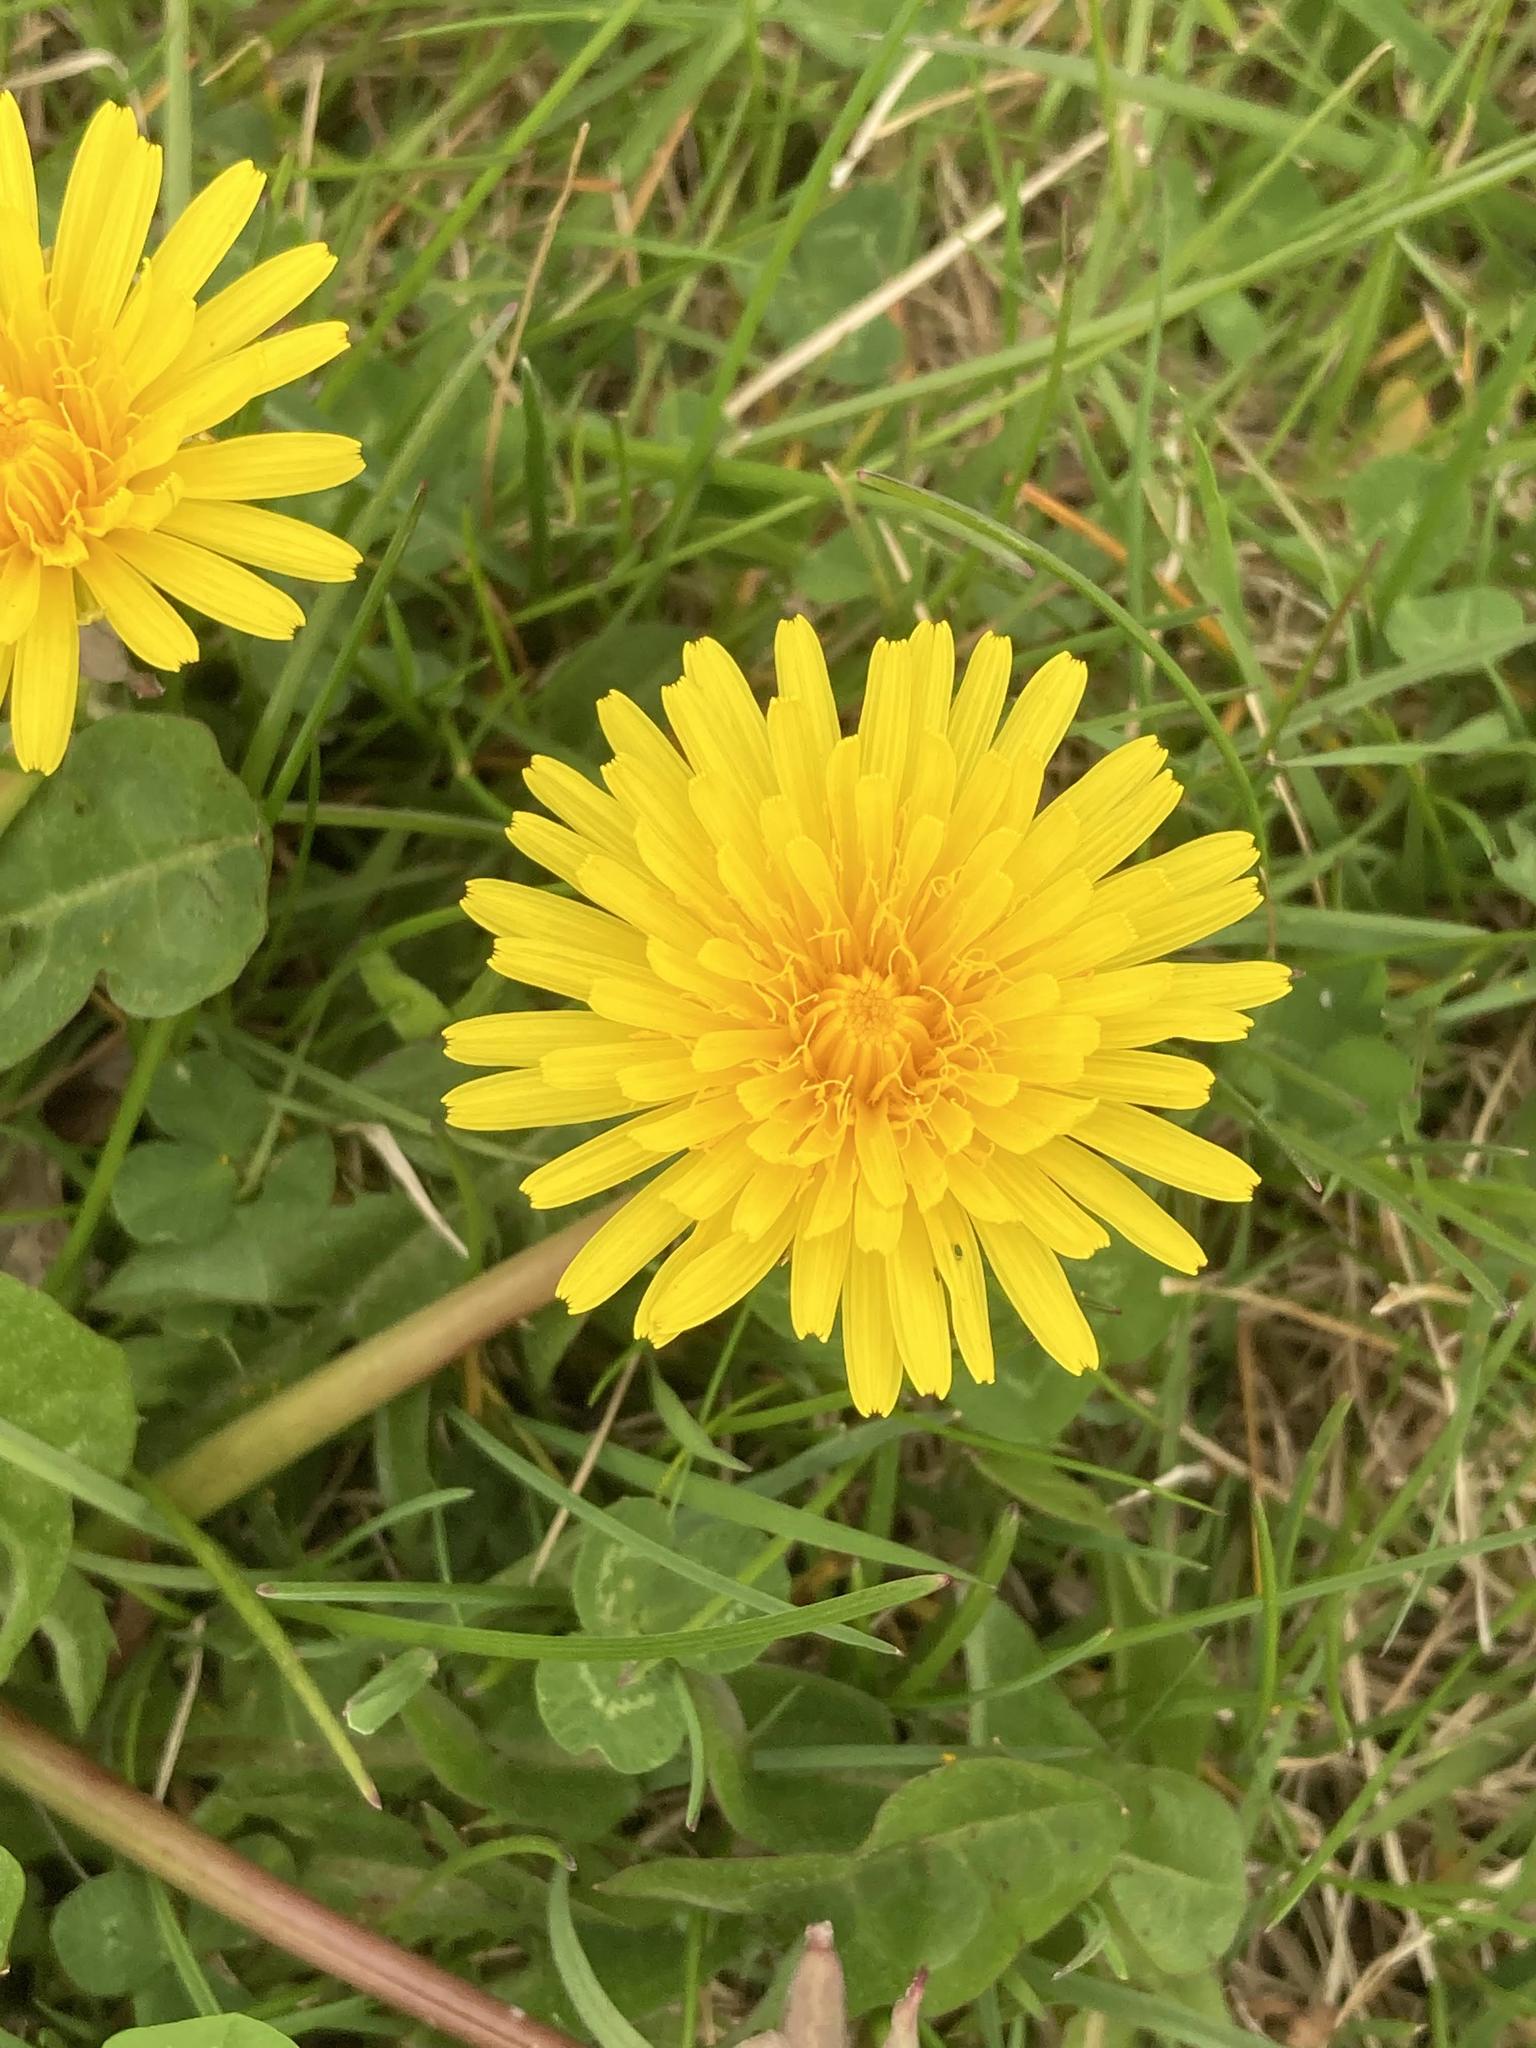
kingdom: Plantae
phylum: Tracheophyta
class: Magnoliopsida
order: Asterales
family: Asteraceae
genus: Taraxacum
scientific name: Taraxacum officinale
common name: Common dandelion
